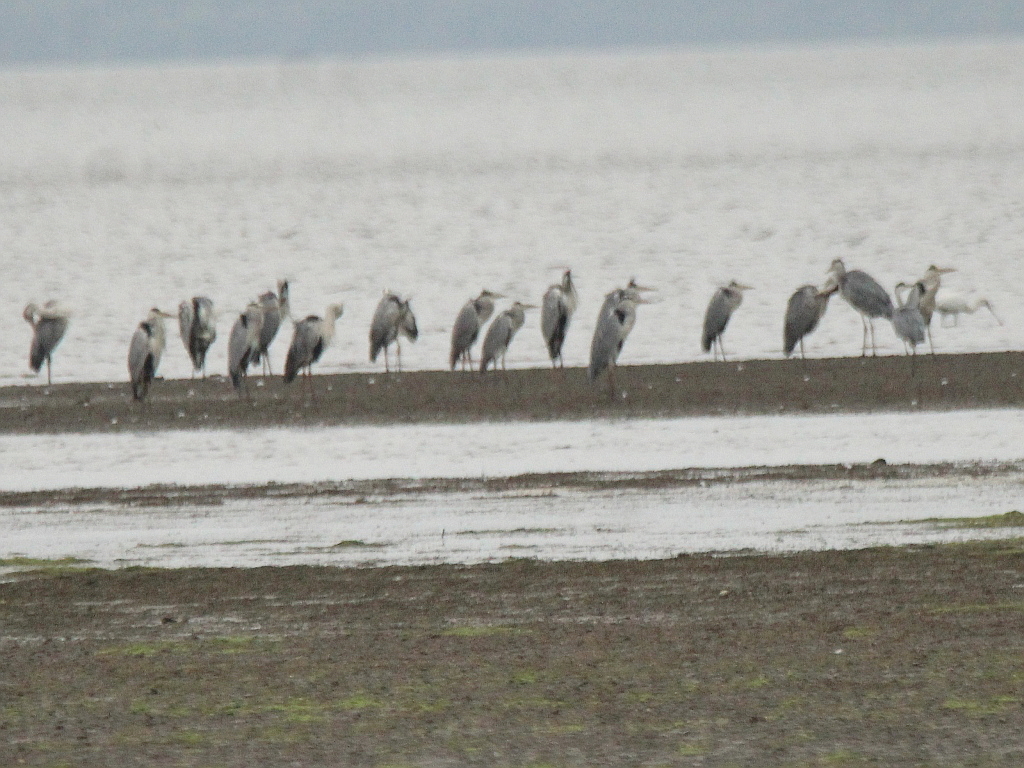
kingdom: Animalia
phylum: Chordata
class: Aves
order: Pelecaniformes
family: Ardeidae
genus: Ardea
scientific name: Ardea cinerea
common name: Grey heron
